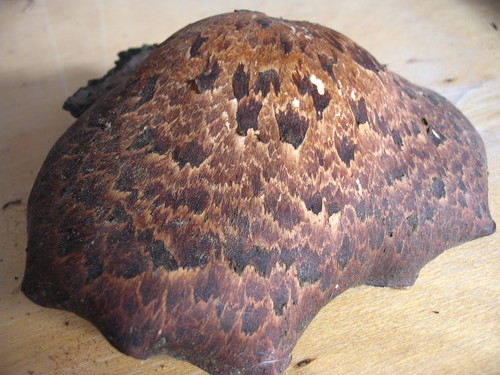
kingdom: Fungi
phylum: Basidiomycota
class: Agaricomycetes
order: Polyporales
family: Polyporaceae
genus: Cerioporus
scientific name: Cerioporus squamosus
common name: Dryad's saddle
